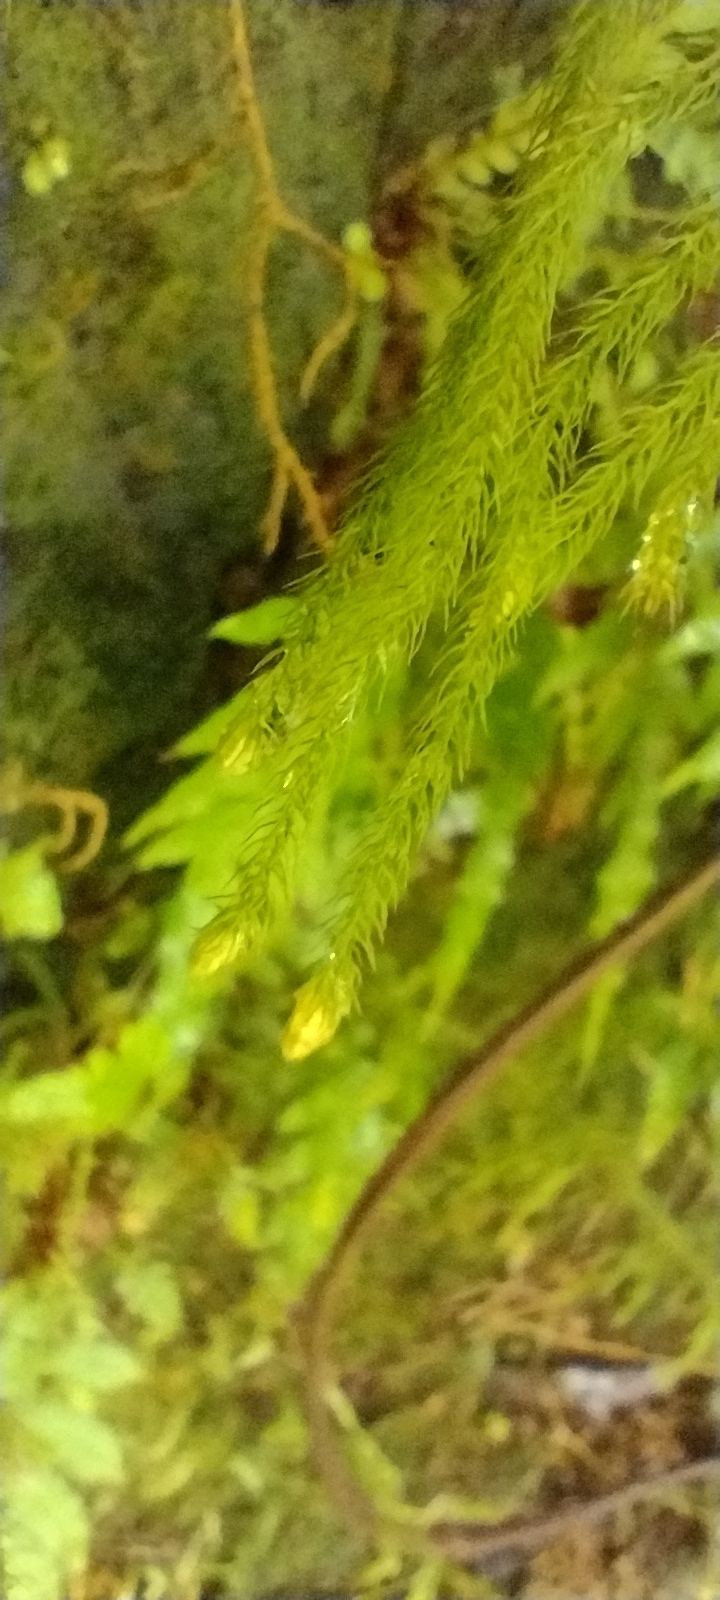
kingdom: Plantae
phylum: Tracheophyta
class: Lycopodiopsida
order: Lycopodiales
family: Lycopodiaceae
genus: Palhinhaea
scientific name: Palhinhaea cernua
